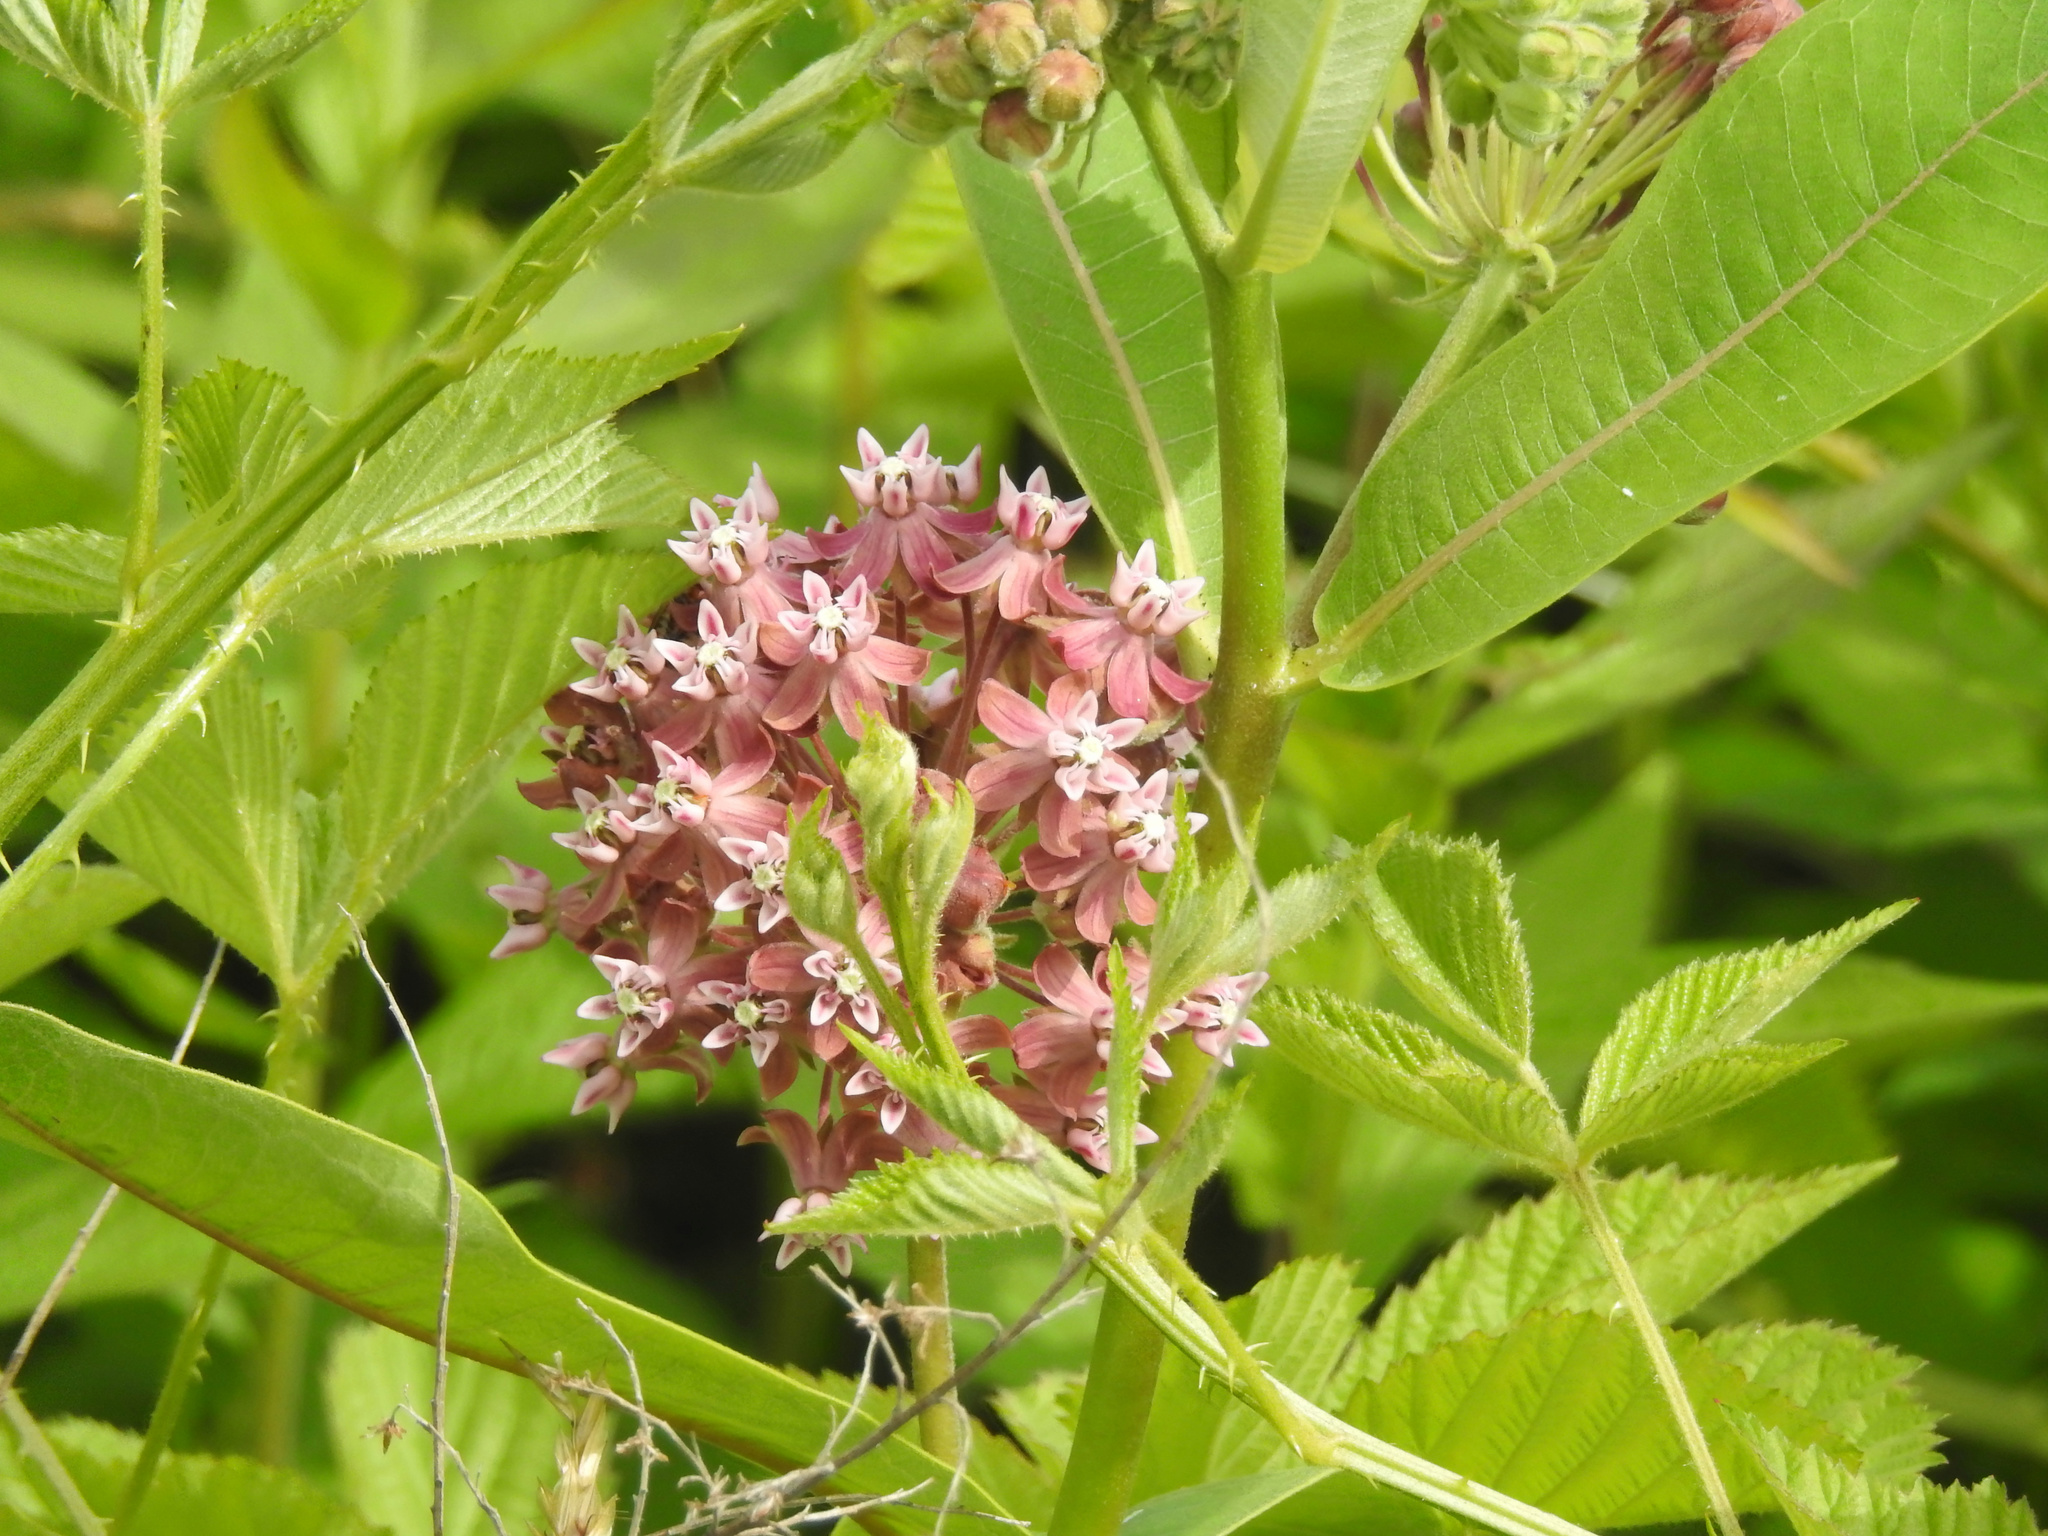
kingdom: Plantae
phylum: Tracheophyta
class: Magnoliopsida
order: Gentianales
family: Apocynaceae
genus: Asclepias
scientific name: Asclepias syriaca
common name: Common milkweed
